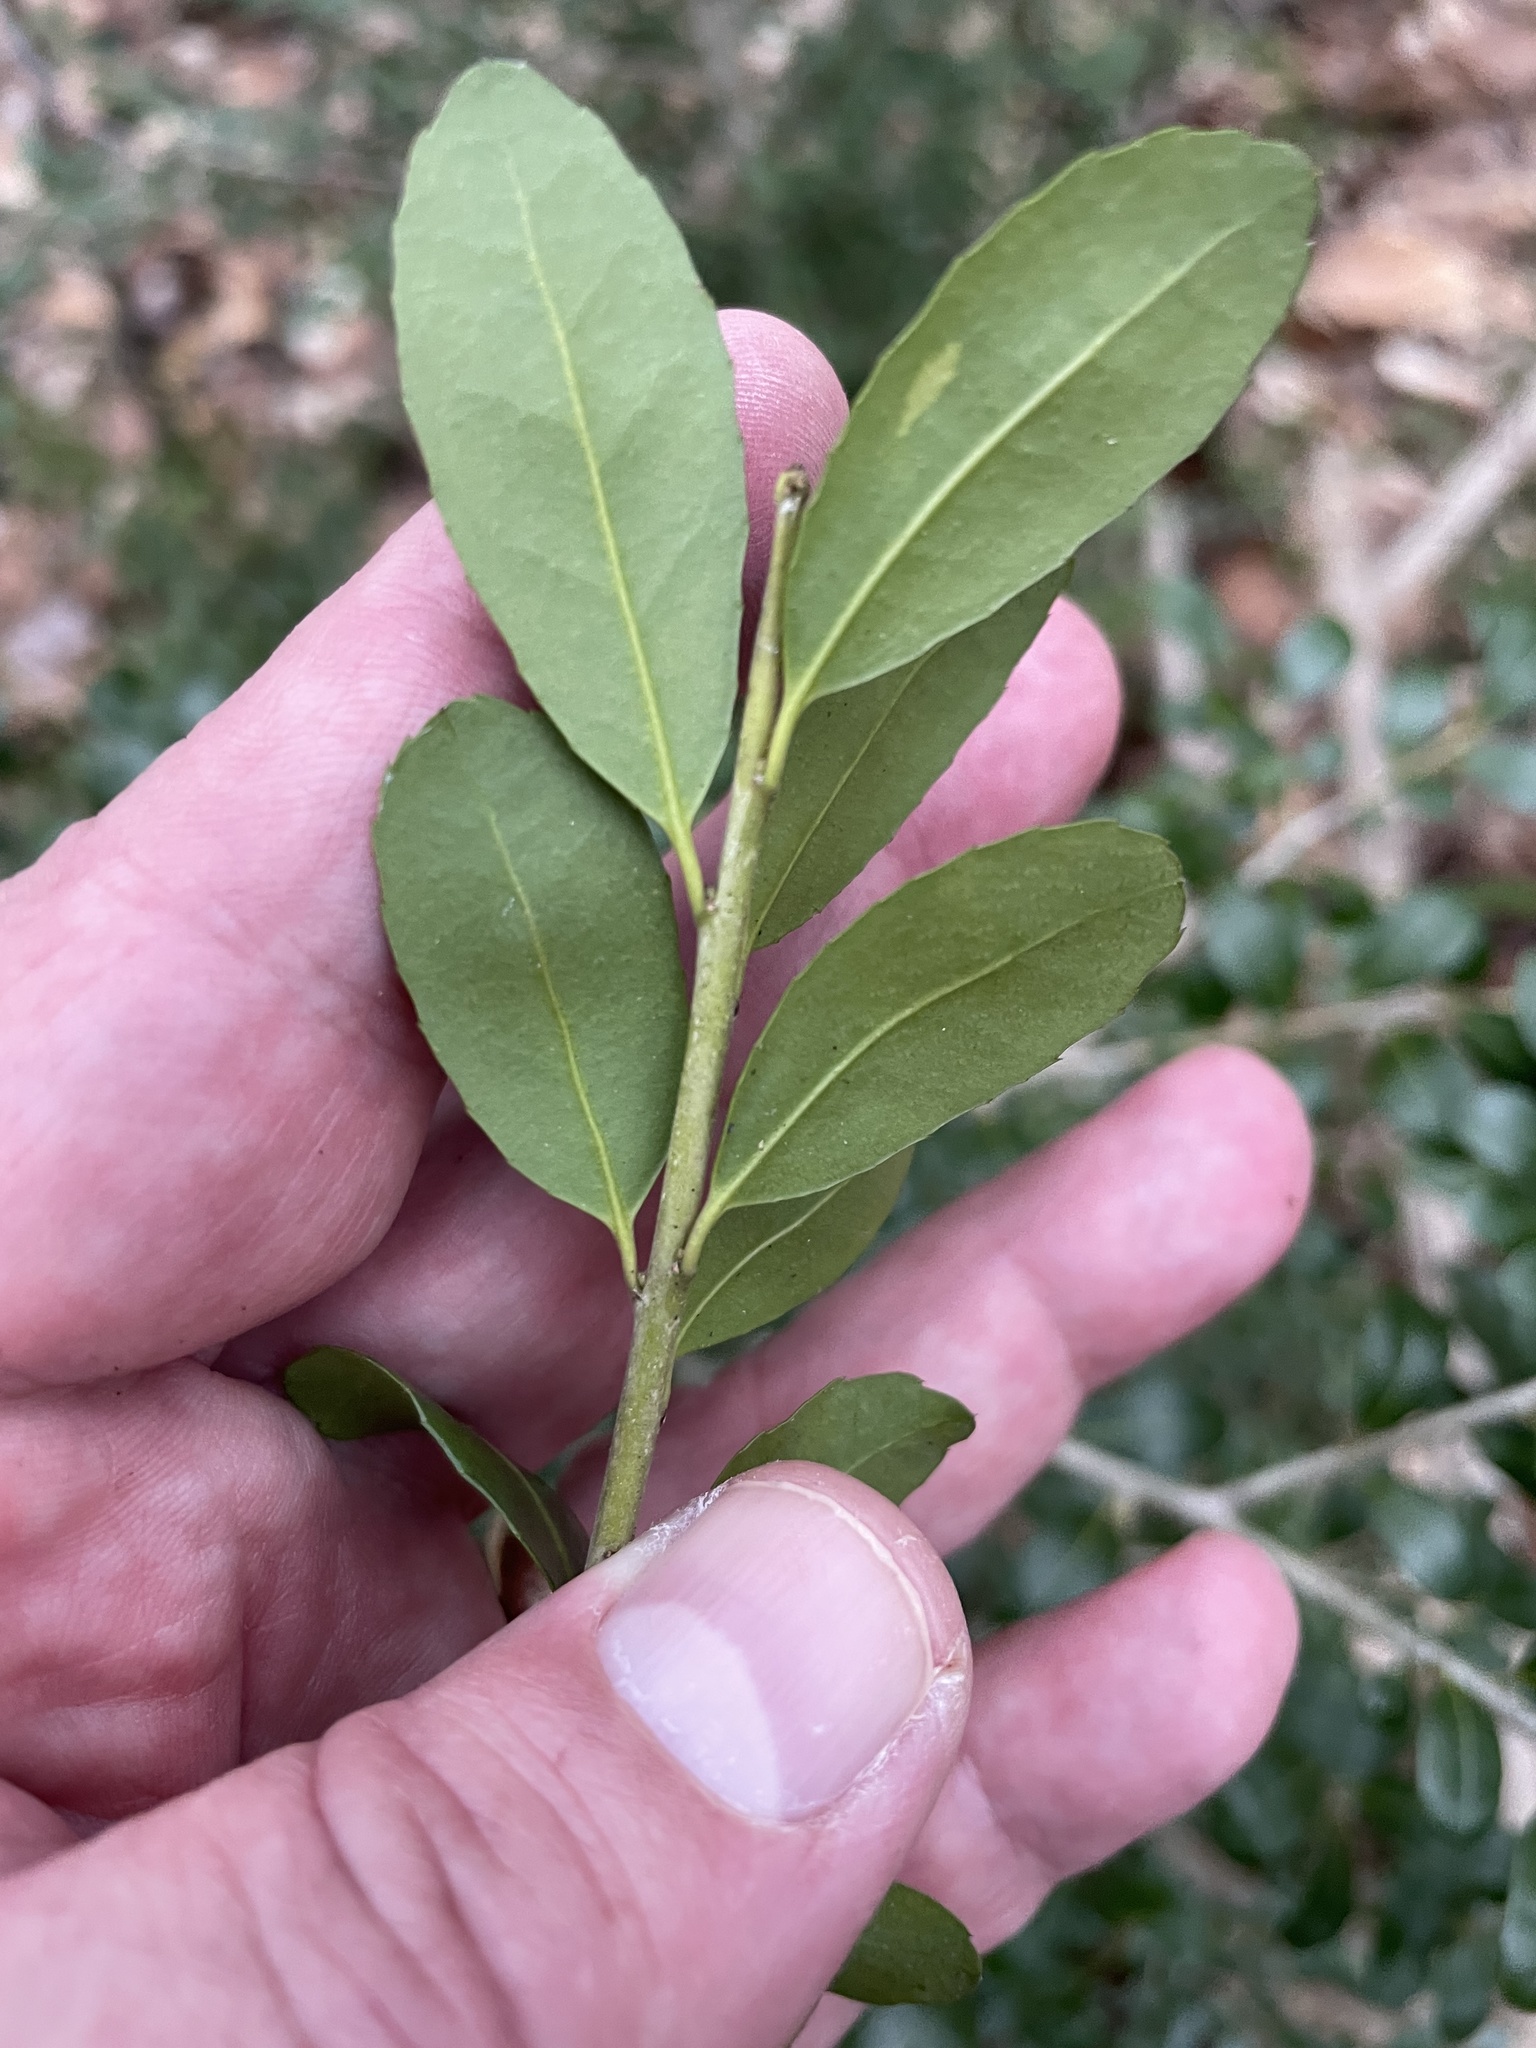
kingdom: Plantae
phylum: Tracheophyta
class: Magnoliopsida
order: Aquifoliales
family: Aquifoliaceae
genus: Ilex
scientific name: Ilex crenata
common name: Japanese holly
